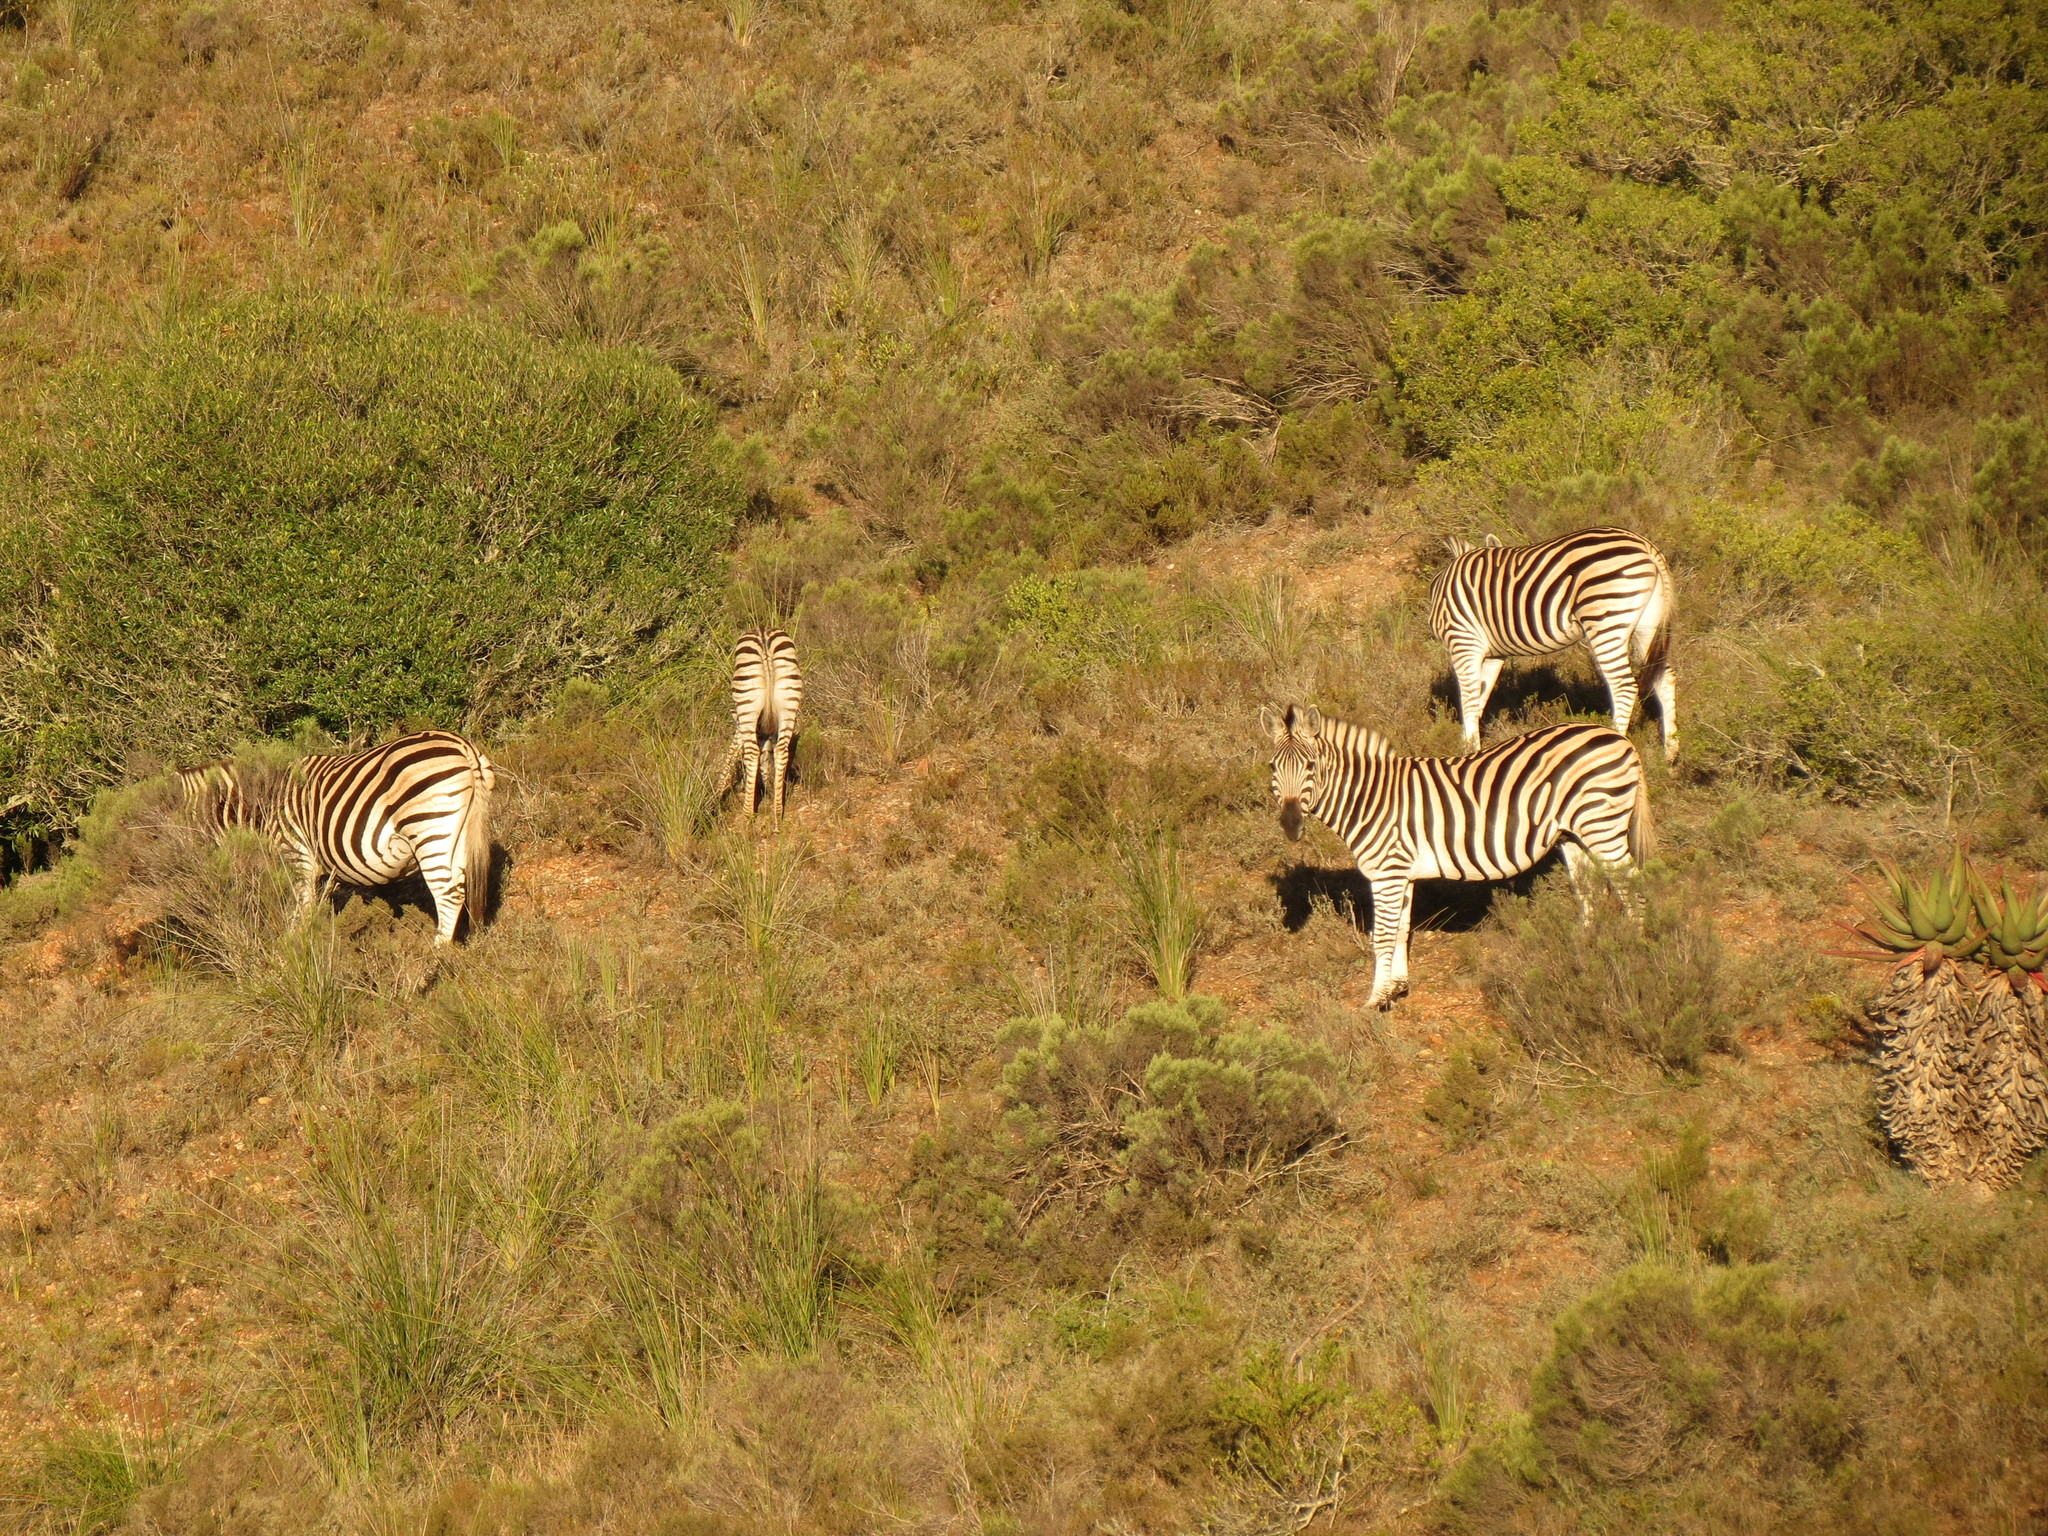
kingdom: Animalia
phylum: Chordata
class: Mammalia
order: Perissodactyla
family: Equidae
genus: Equus
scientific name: Equus quagga
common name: Plains zebra
